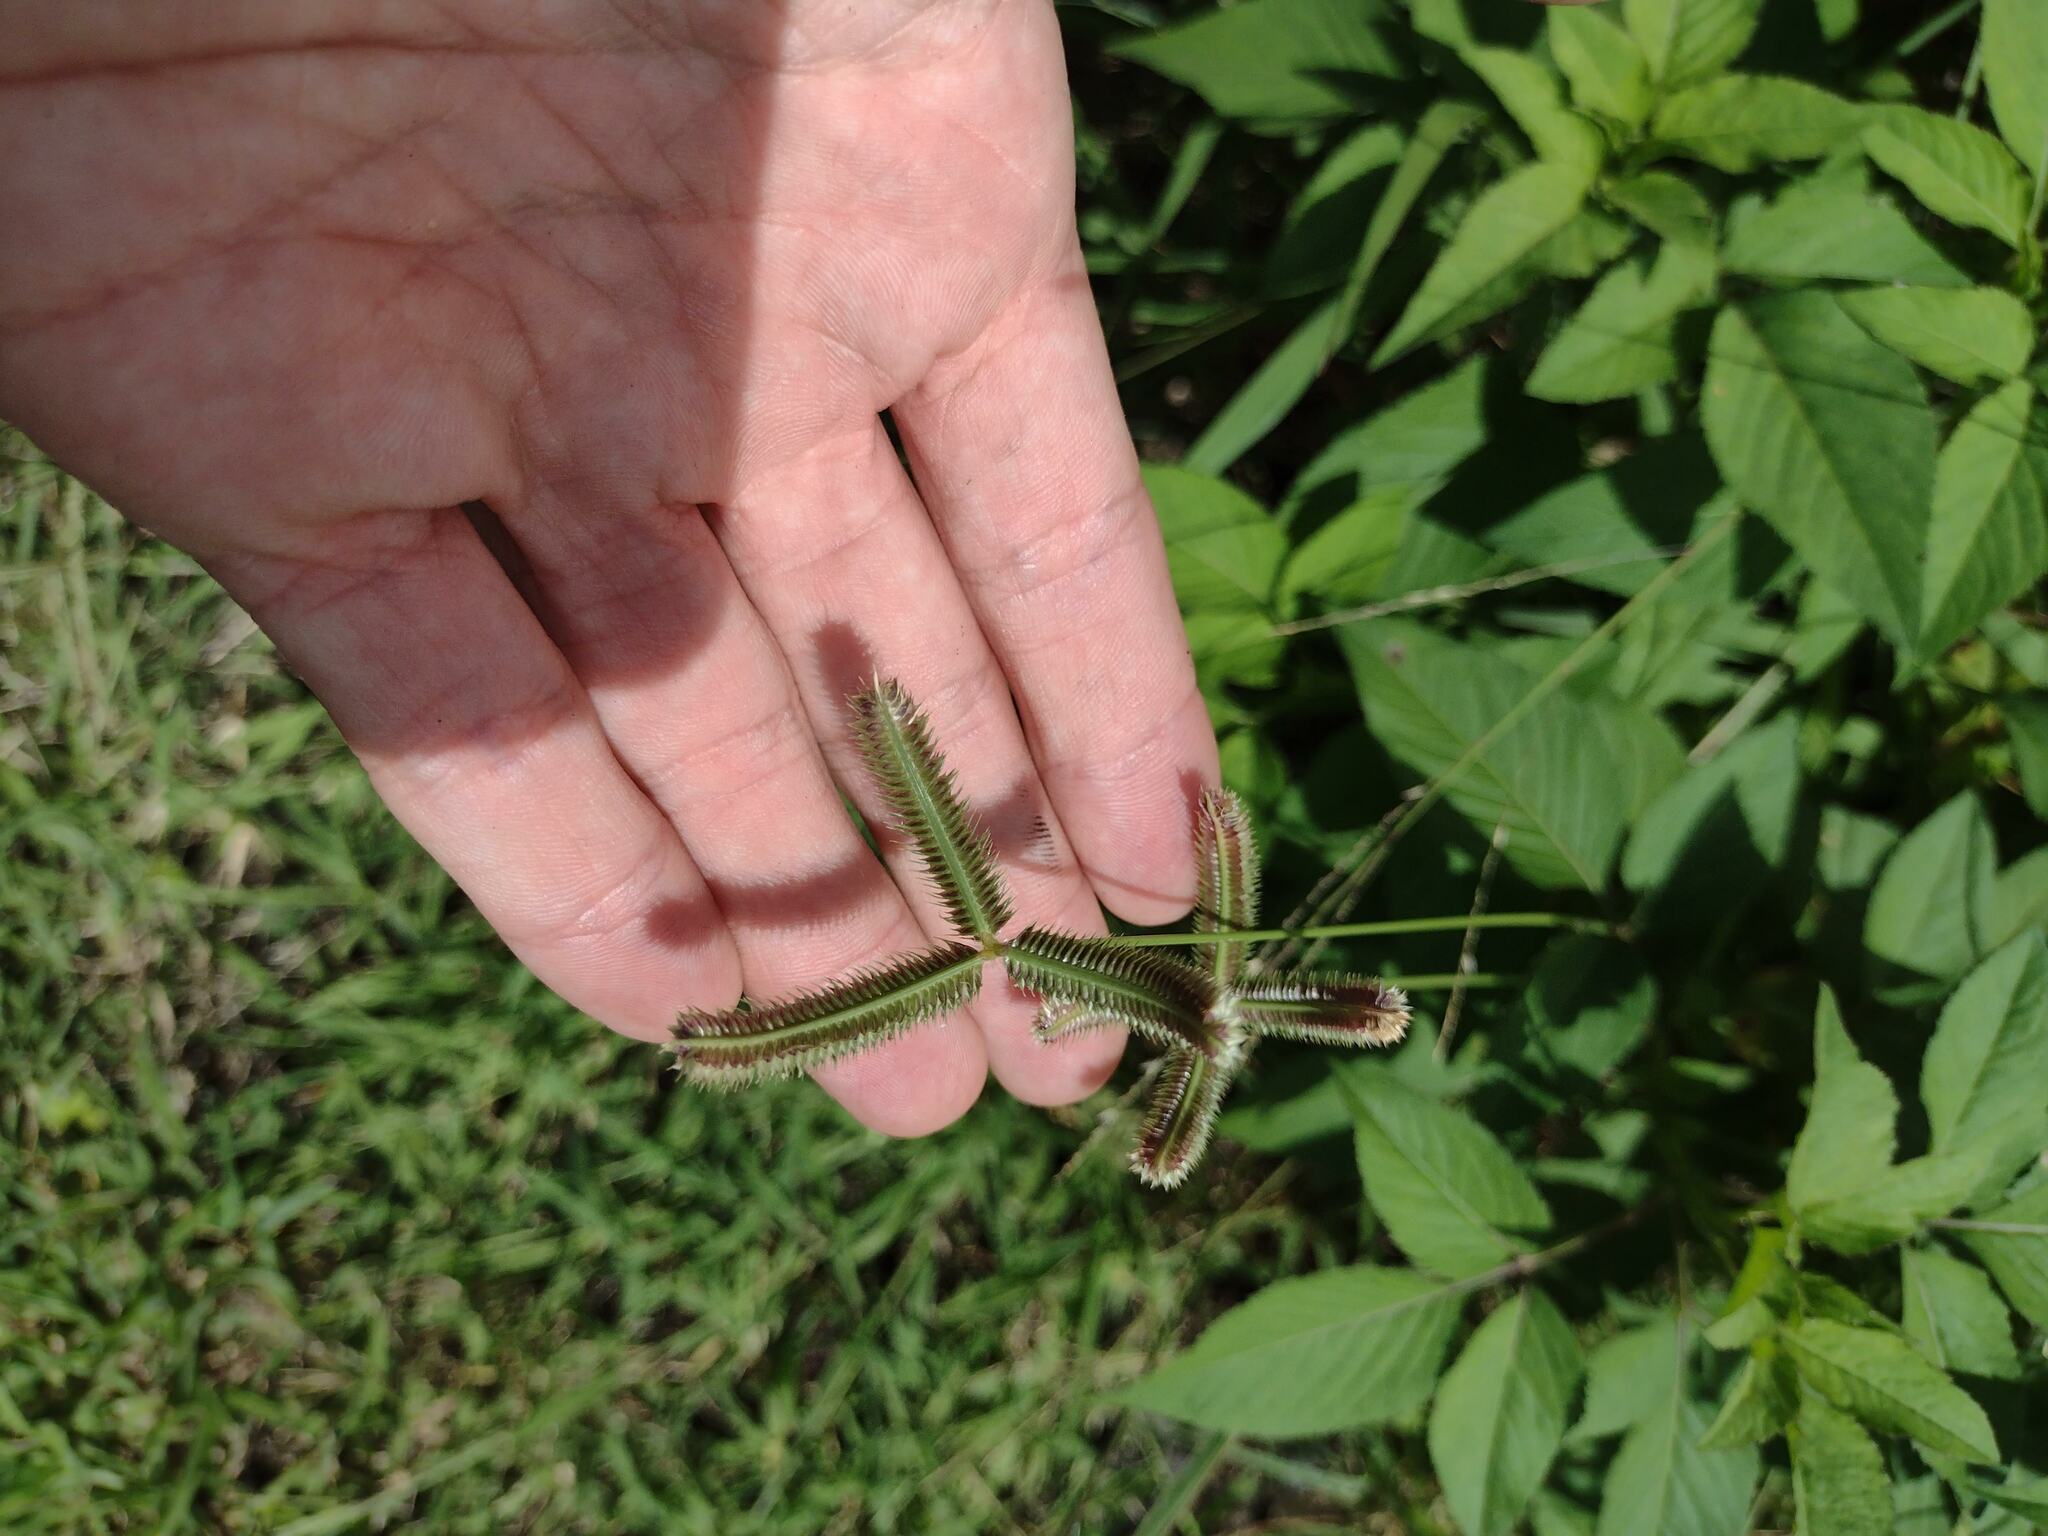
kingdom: Plantae
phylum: Tracheophyta
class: Liliopsida
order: Poales
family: Poaceae
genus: Dactyloctenium
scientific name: Dactyloctenium aegyptium
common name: Egyptian grass
